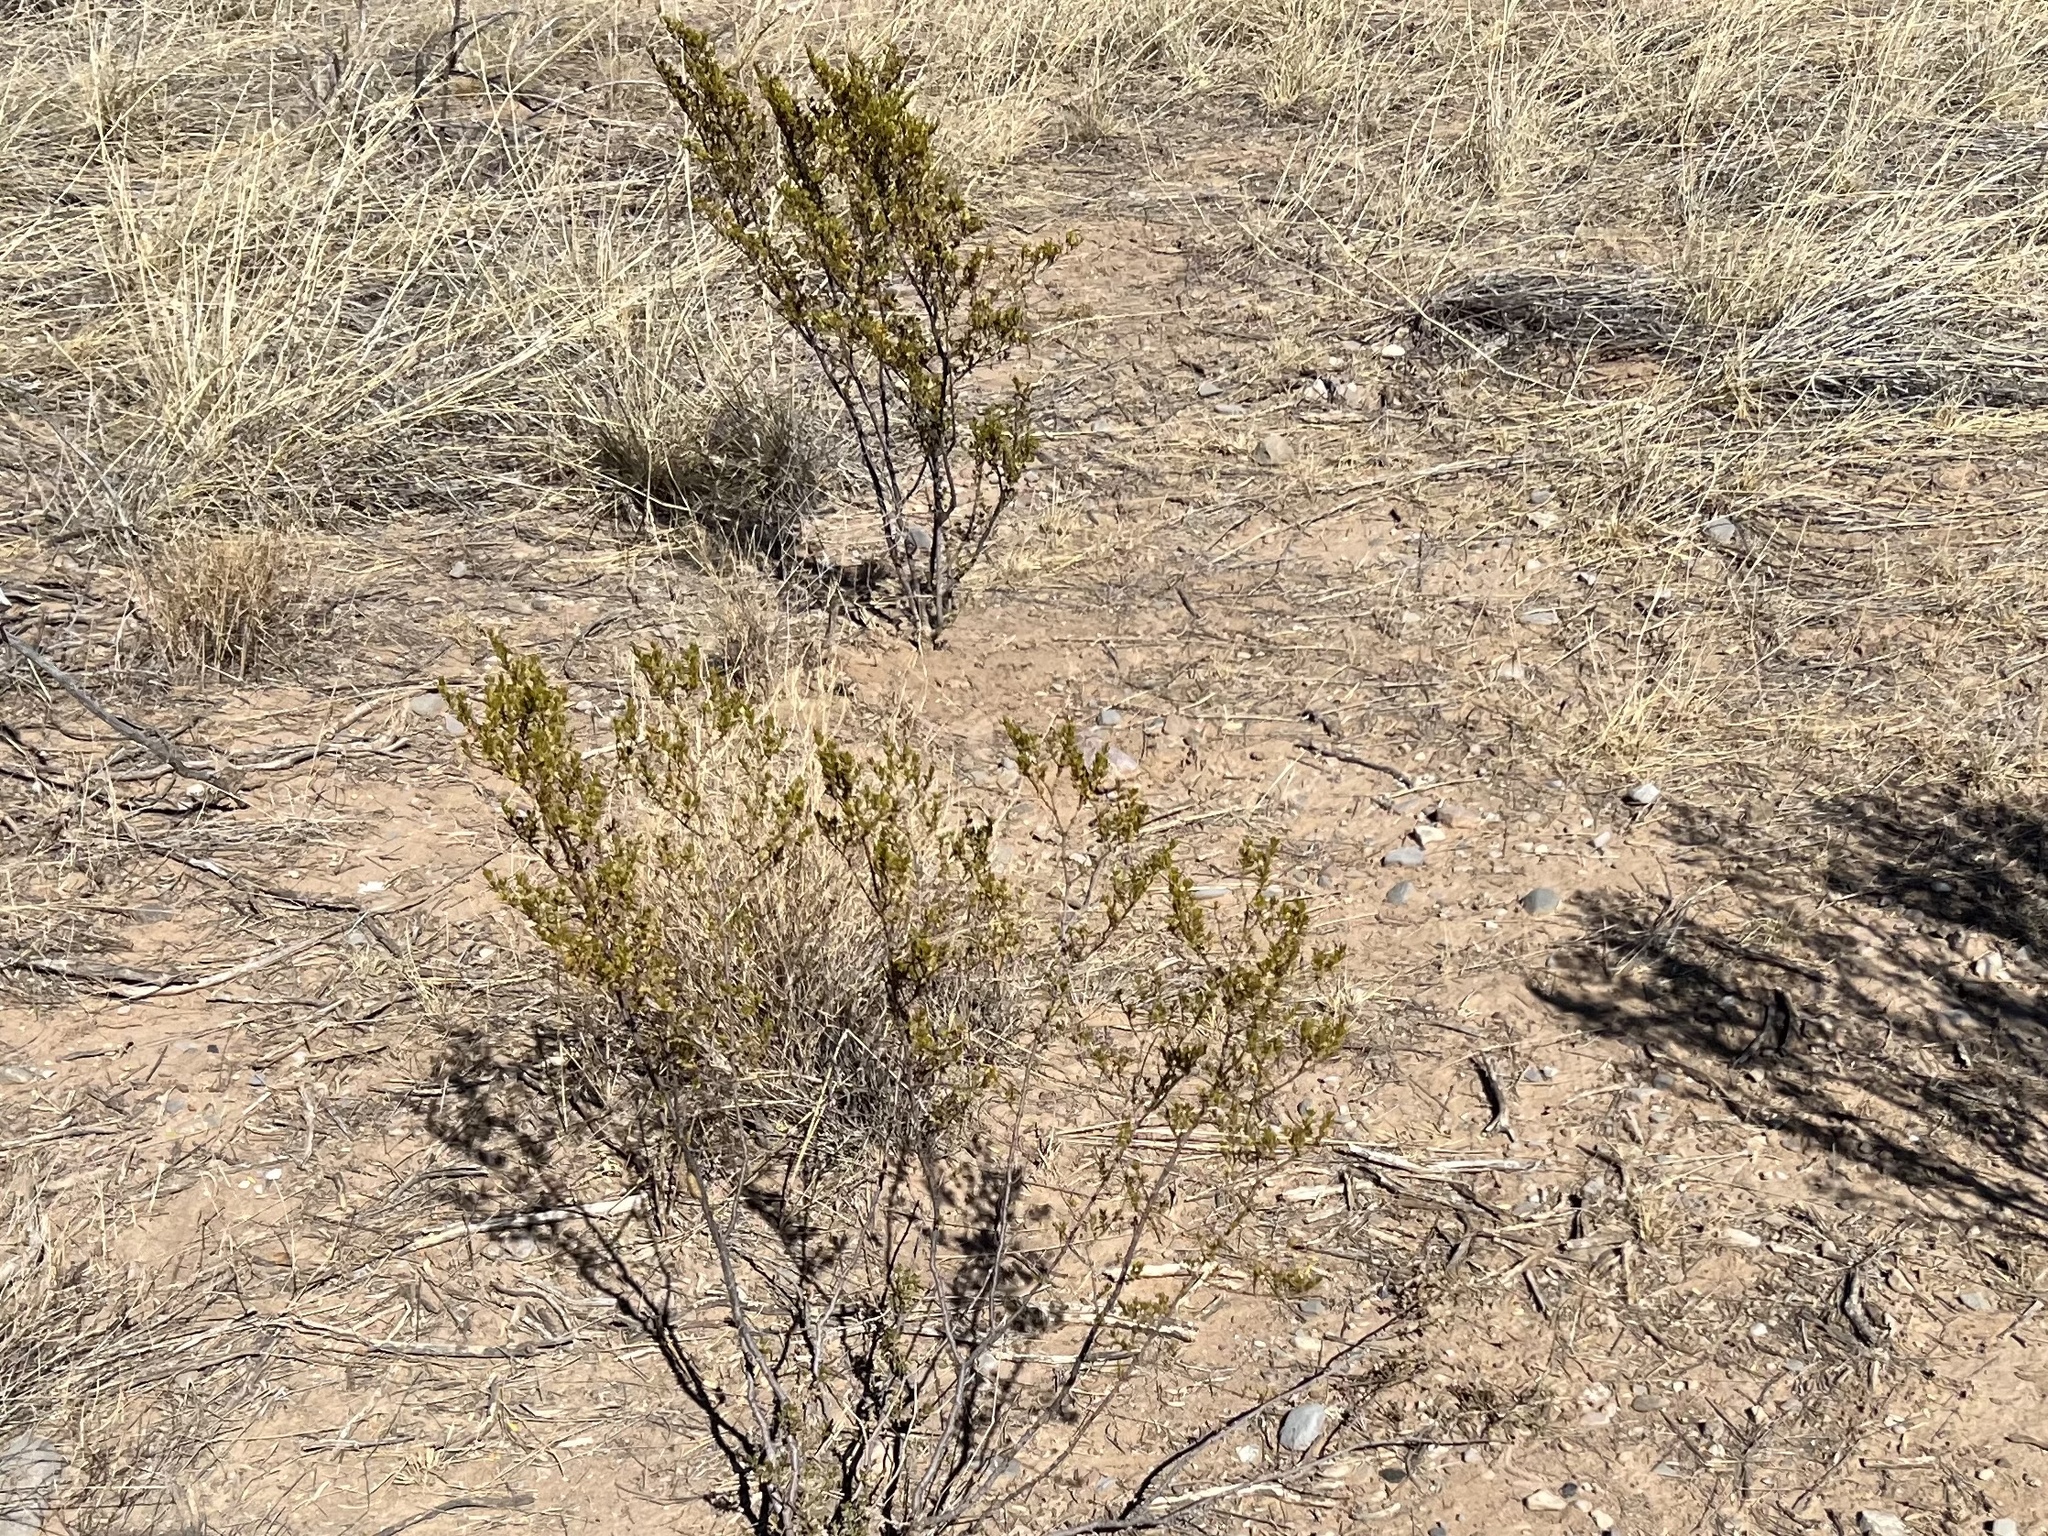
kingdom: Plantae
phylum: Tracheophyta
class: Magnoliopsida
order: Zygophyllales
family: Zygophyllaceae
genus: Larrea
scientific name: Larrea tridentata
